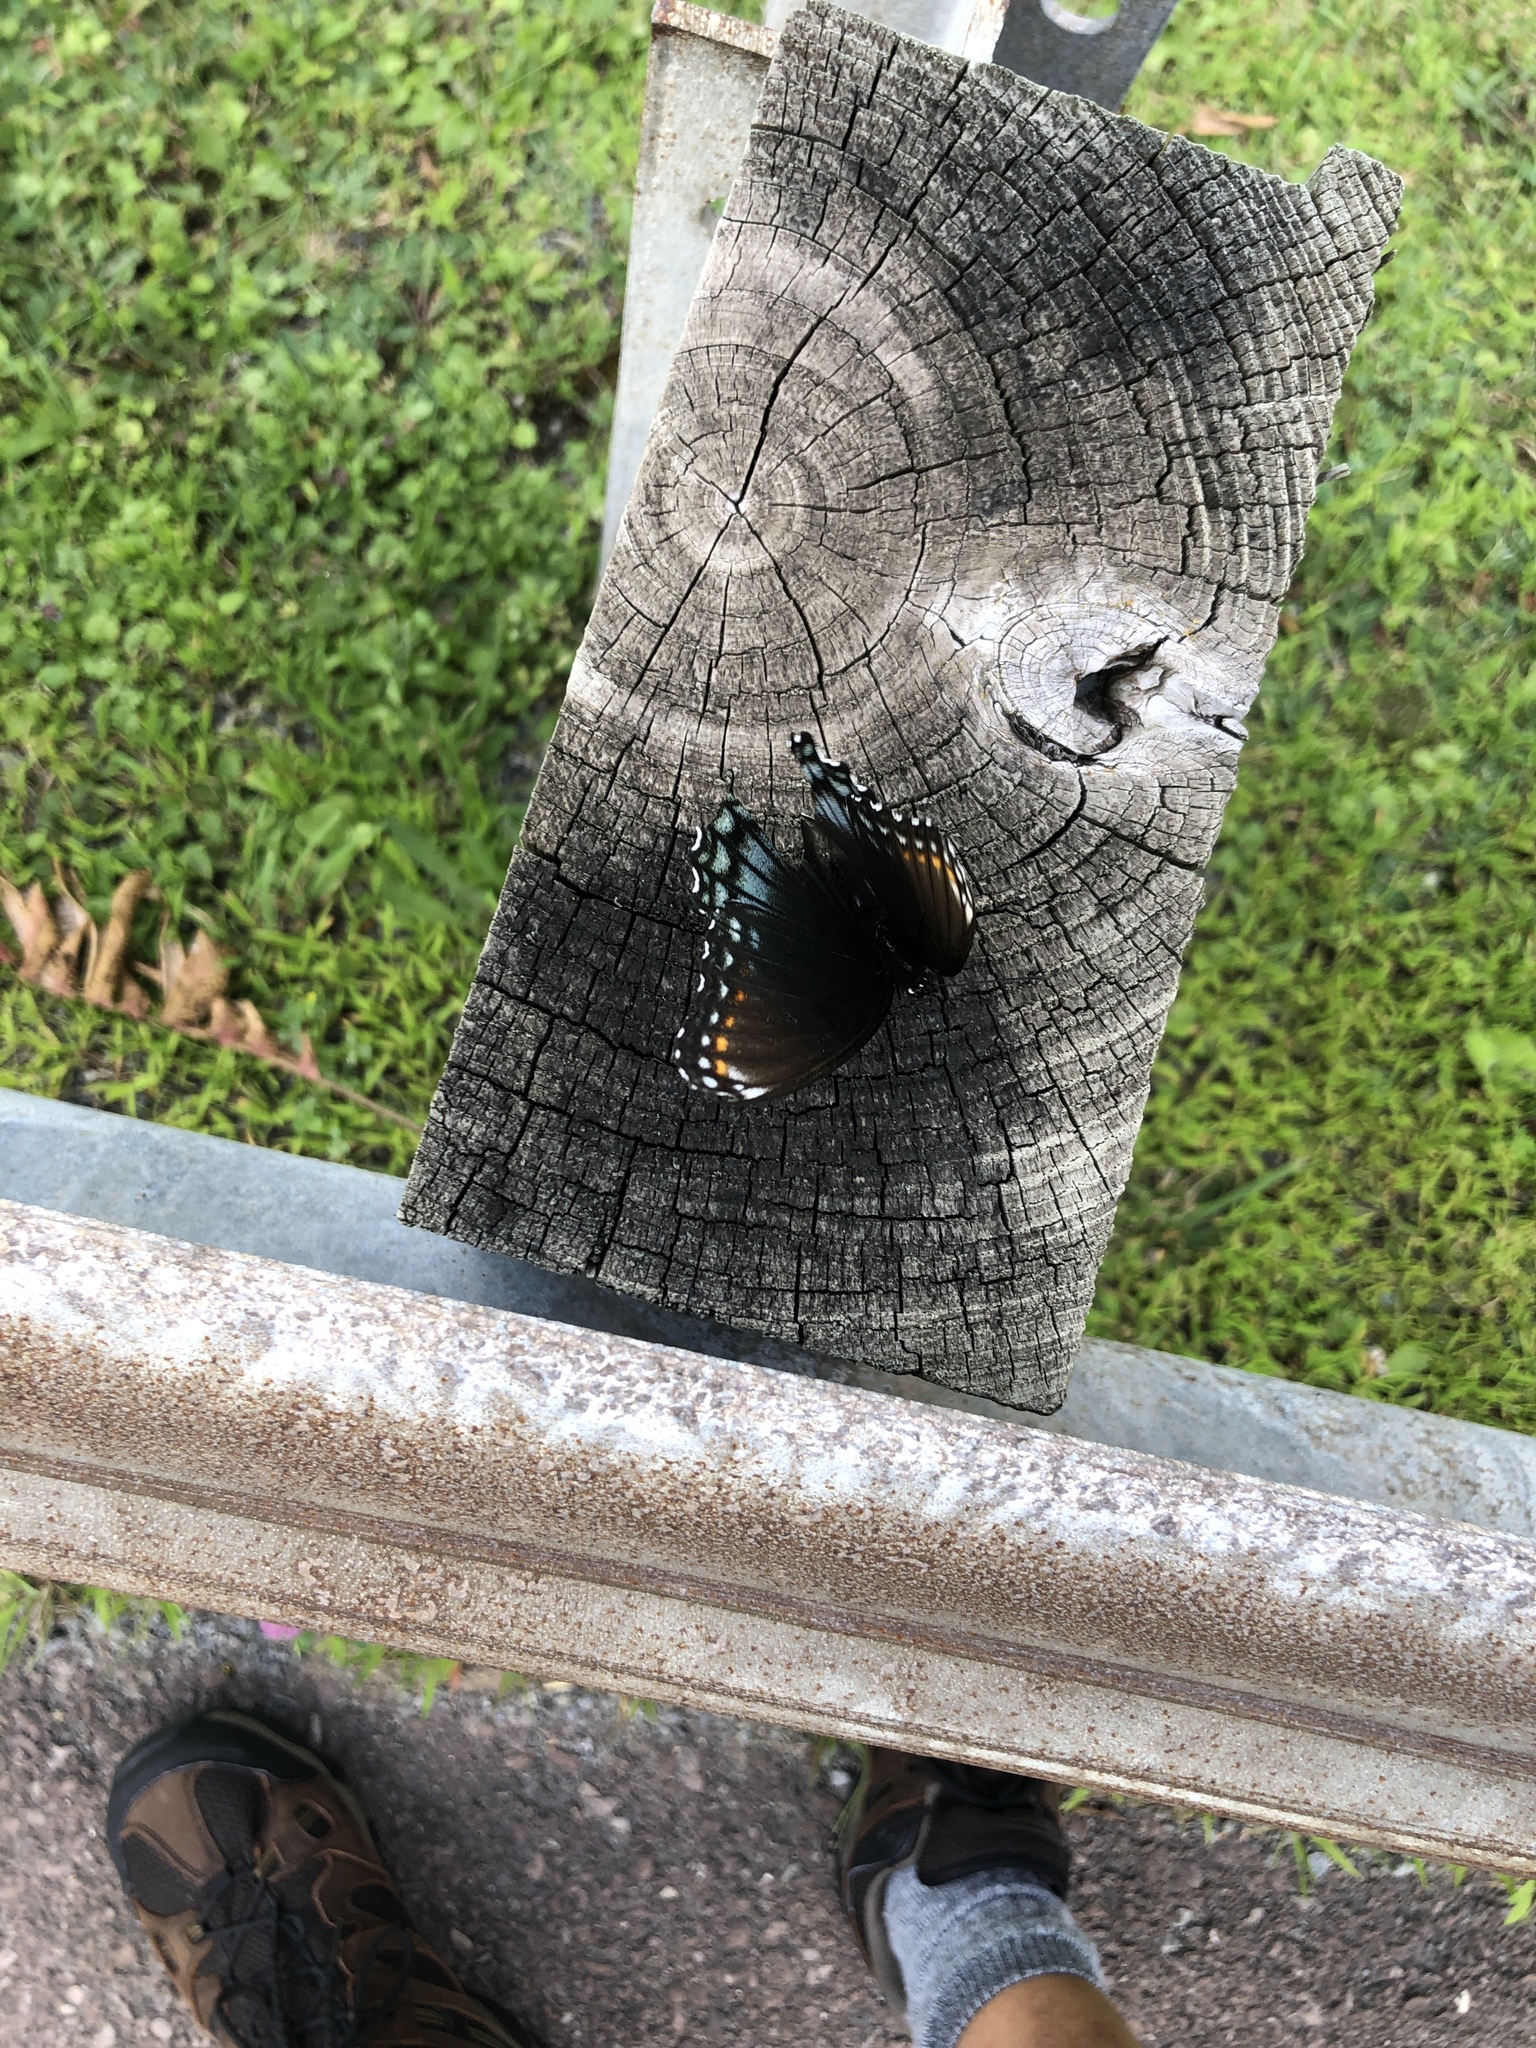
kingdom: Animalia
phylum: Arthropoda
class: Insecta
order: Lepidoptera
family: Nymphalidae
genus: Limenitis
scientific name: Limenitis astyanax
